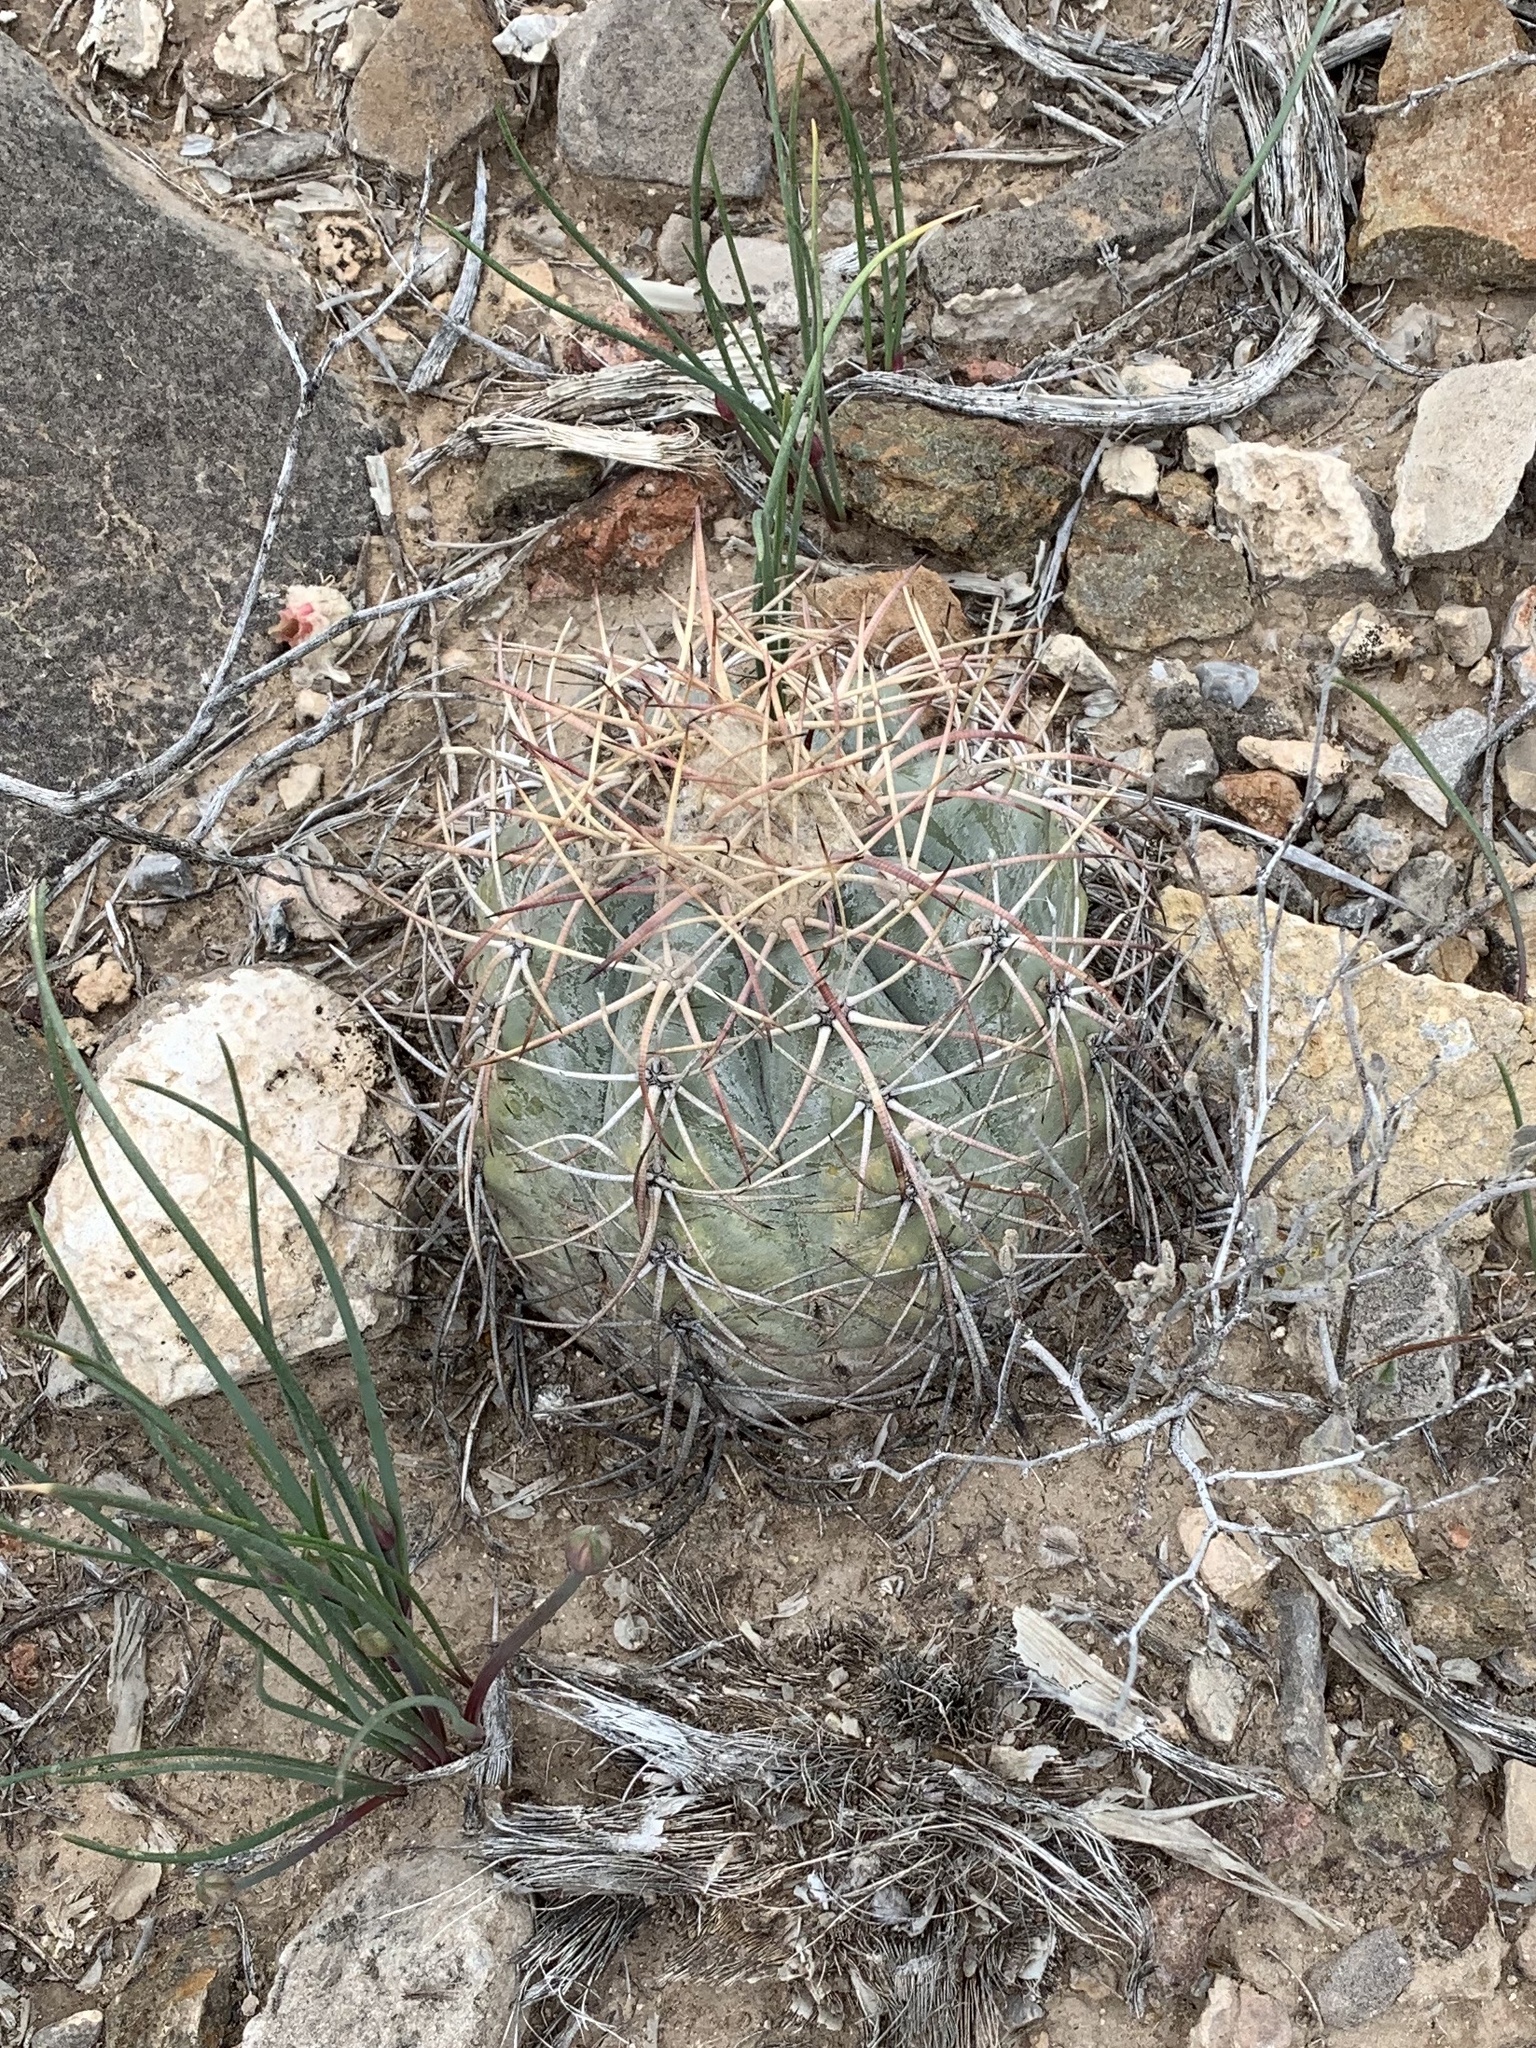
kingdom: Plantae
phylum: Tracheophyta
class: Magnoliopsida
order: Caryophyllales
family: Cactaceae
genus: Echinocactus
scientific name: Echinocactus horizonthalonius
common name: Devilshead
